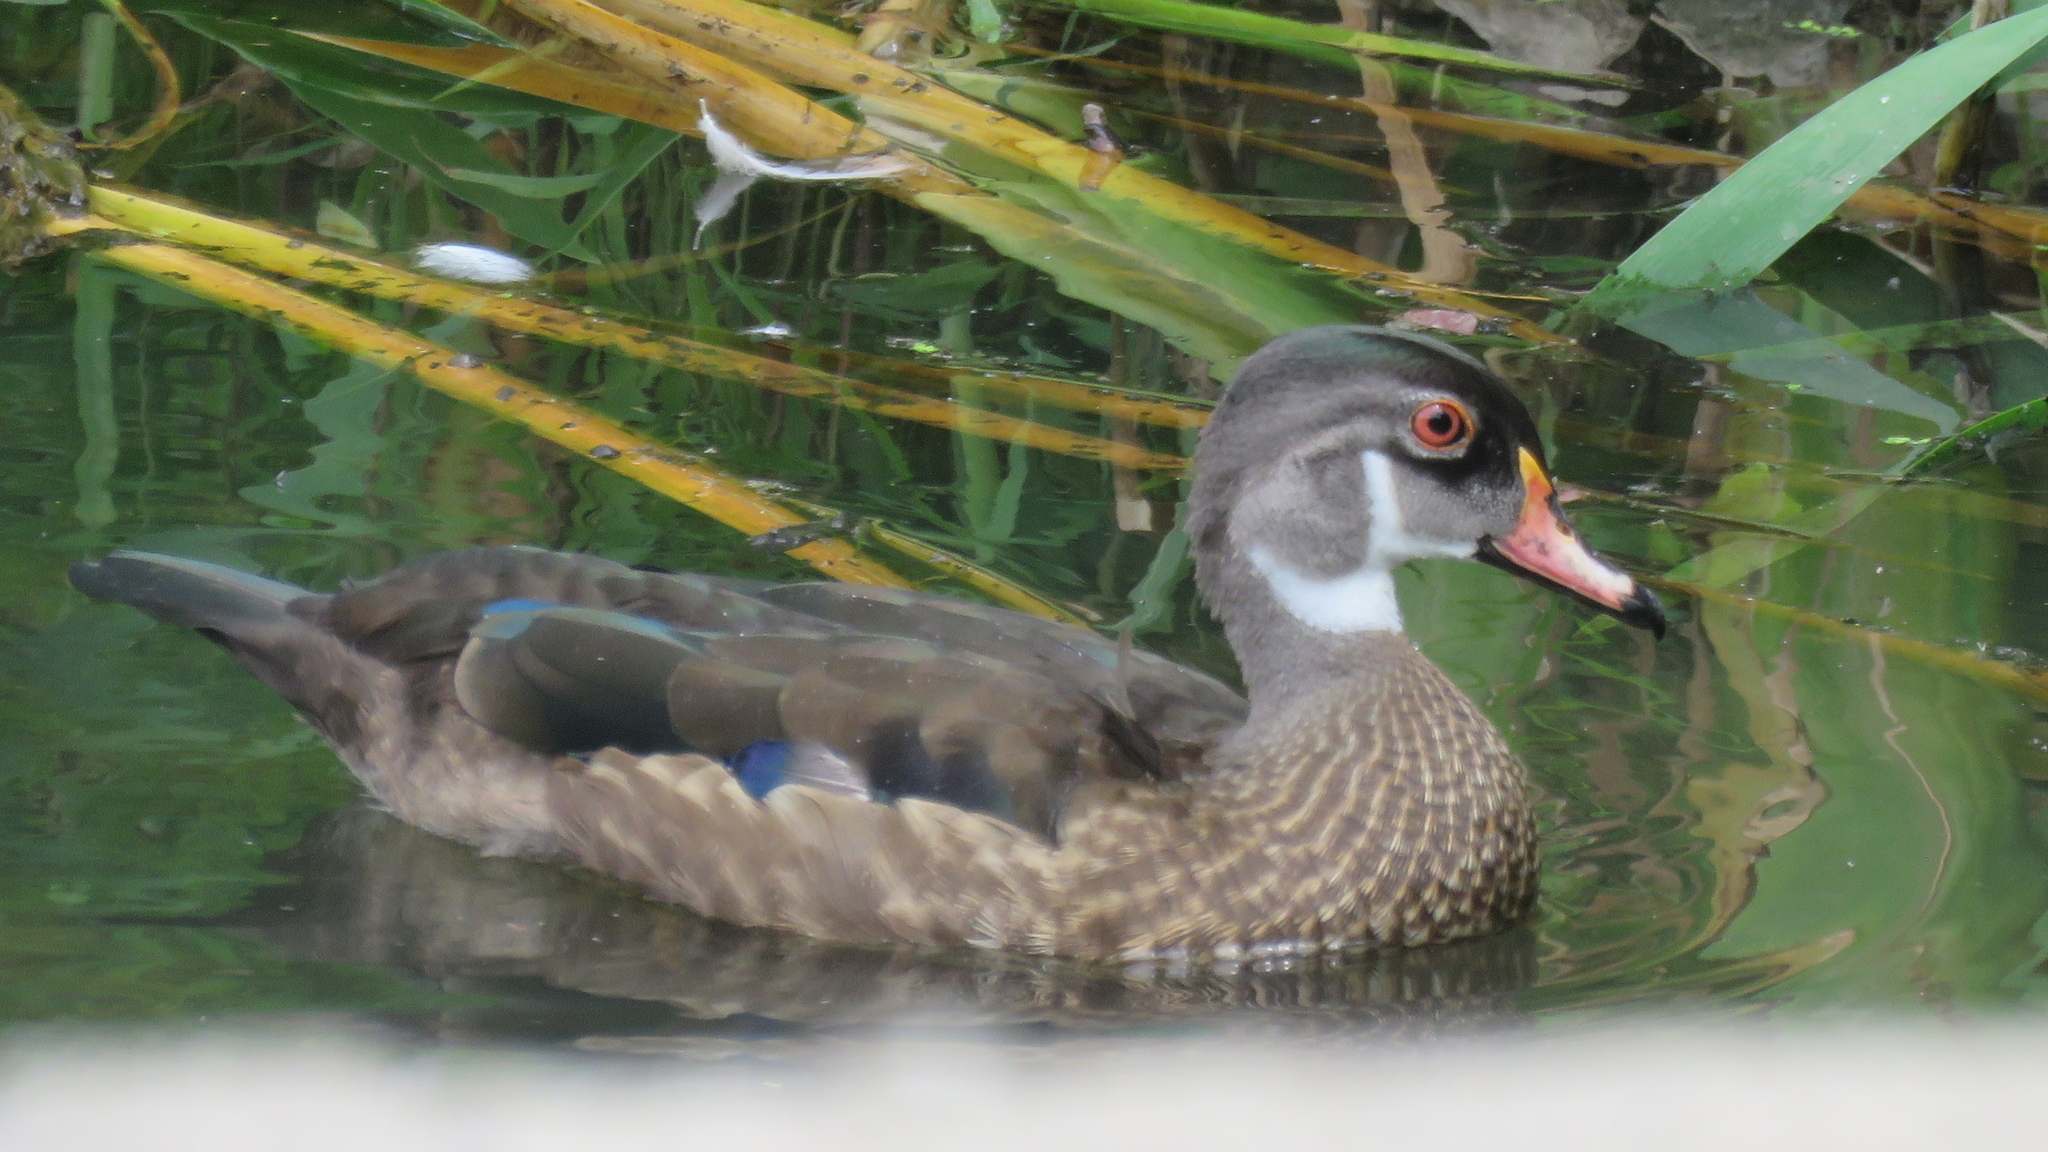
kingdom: Animalia
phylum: Chordata
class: Aves
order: Anseriformes
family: Anatidae
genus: Aix
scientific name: Aix sponsa
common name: Wood duck
